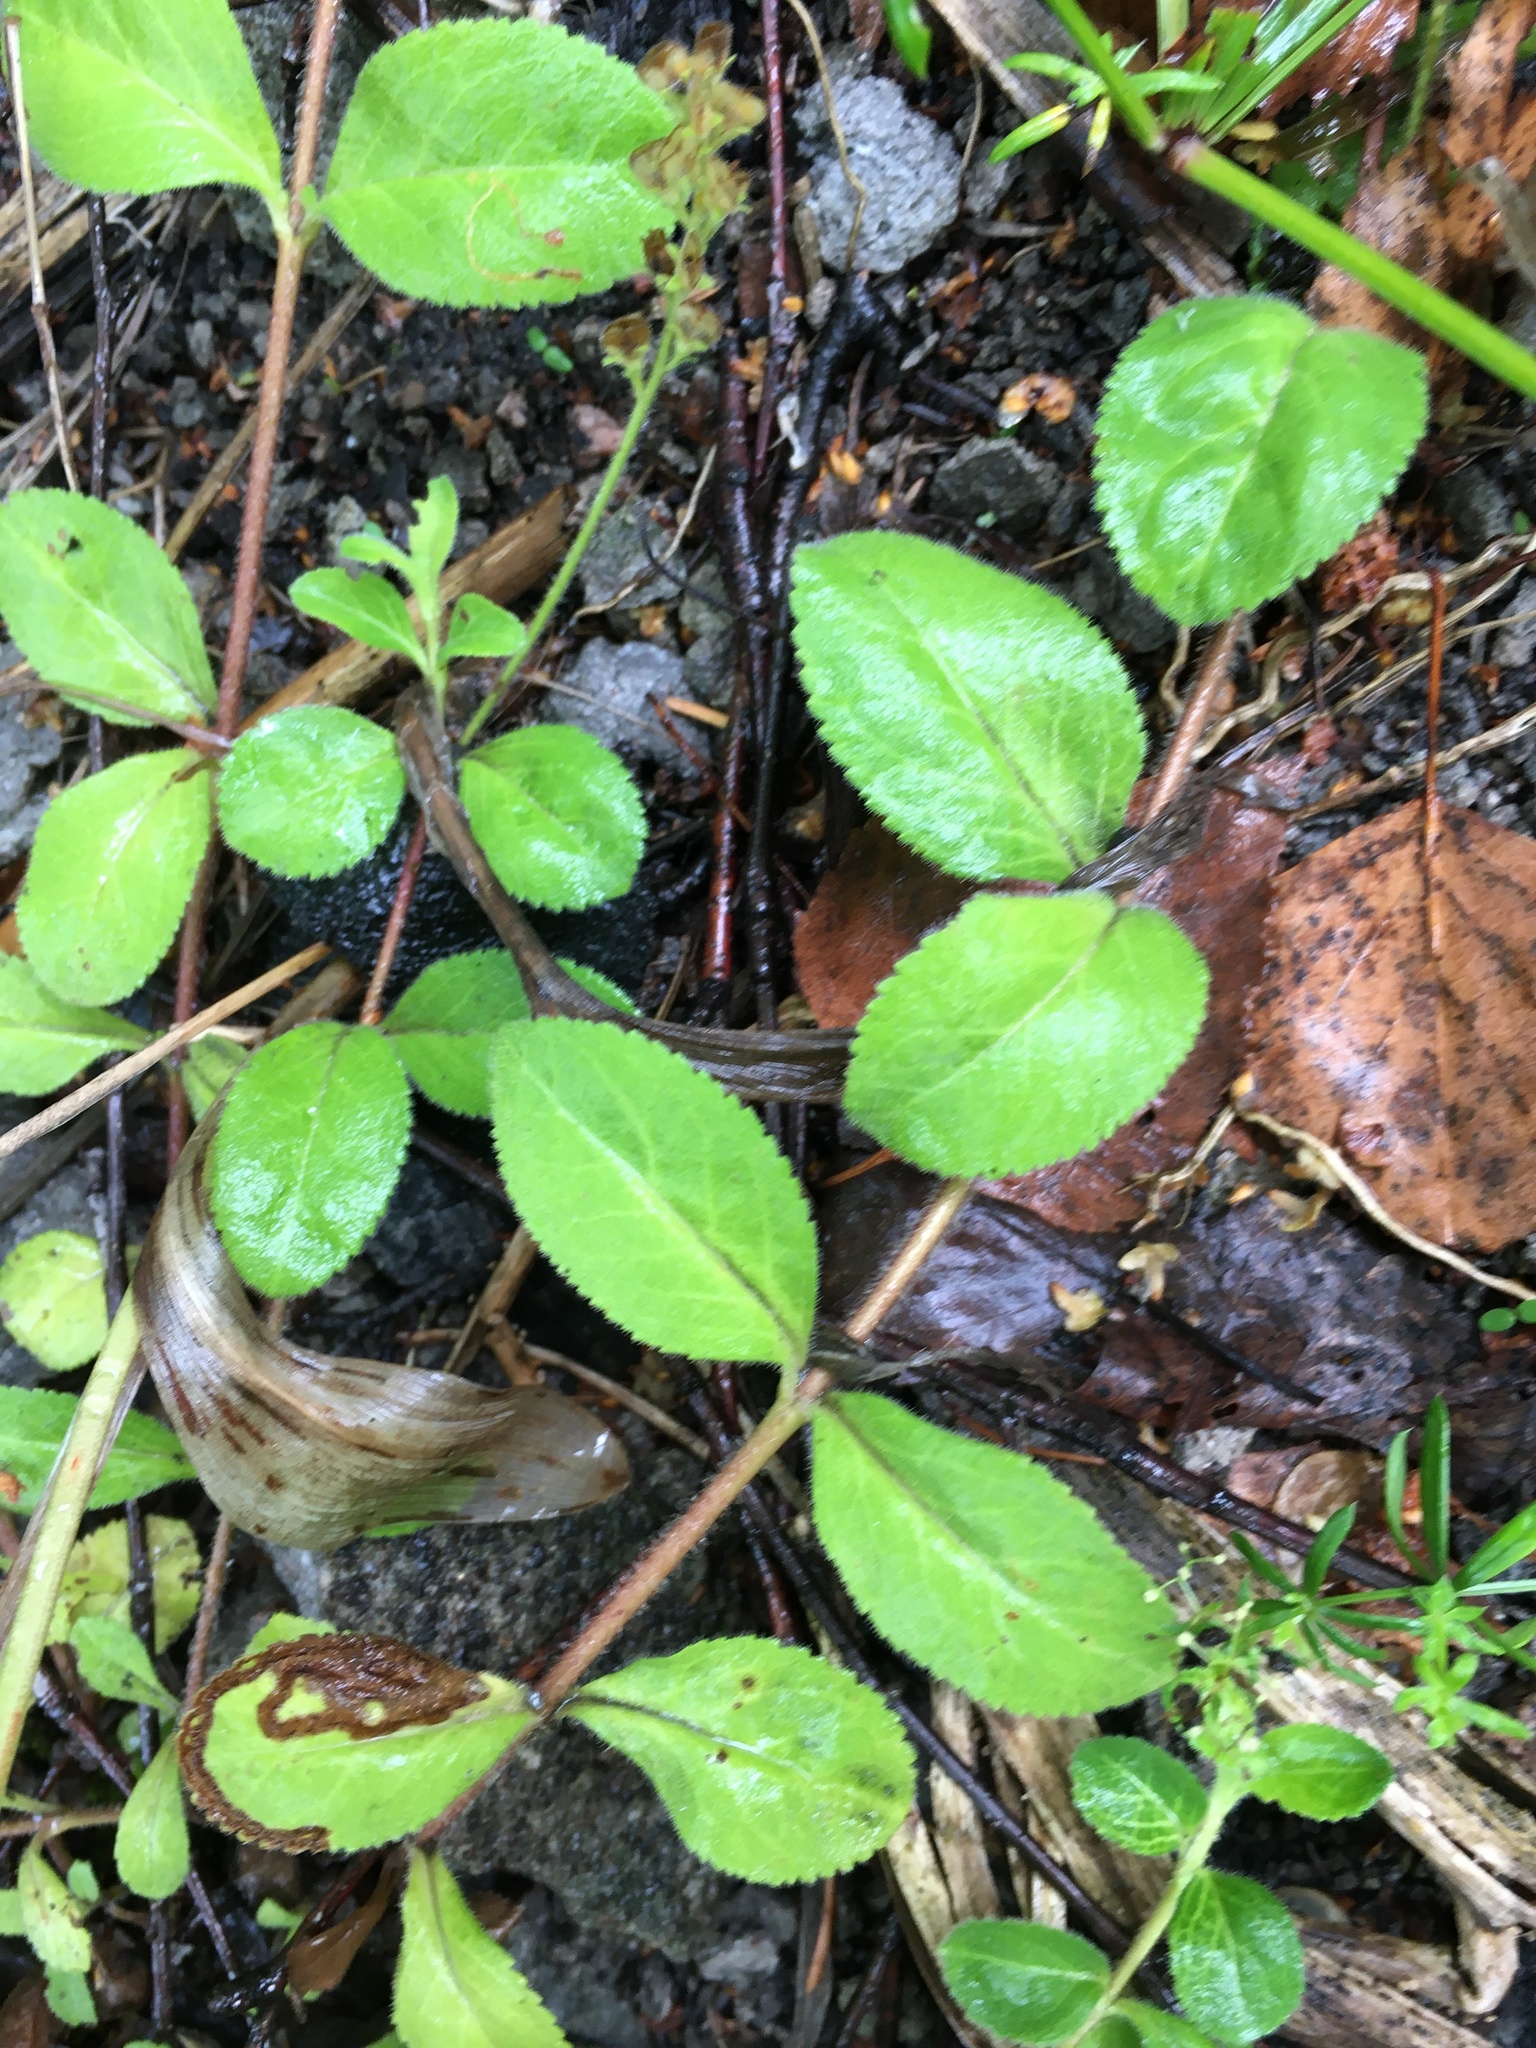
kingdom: Plantae
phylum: Tracheophyta
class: Magnoliopsida
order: Lamiales
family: Plantaginaceae
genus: Veronica
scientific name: Veronica officinalis
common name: Common speedwell
